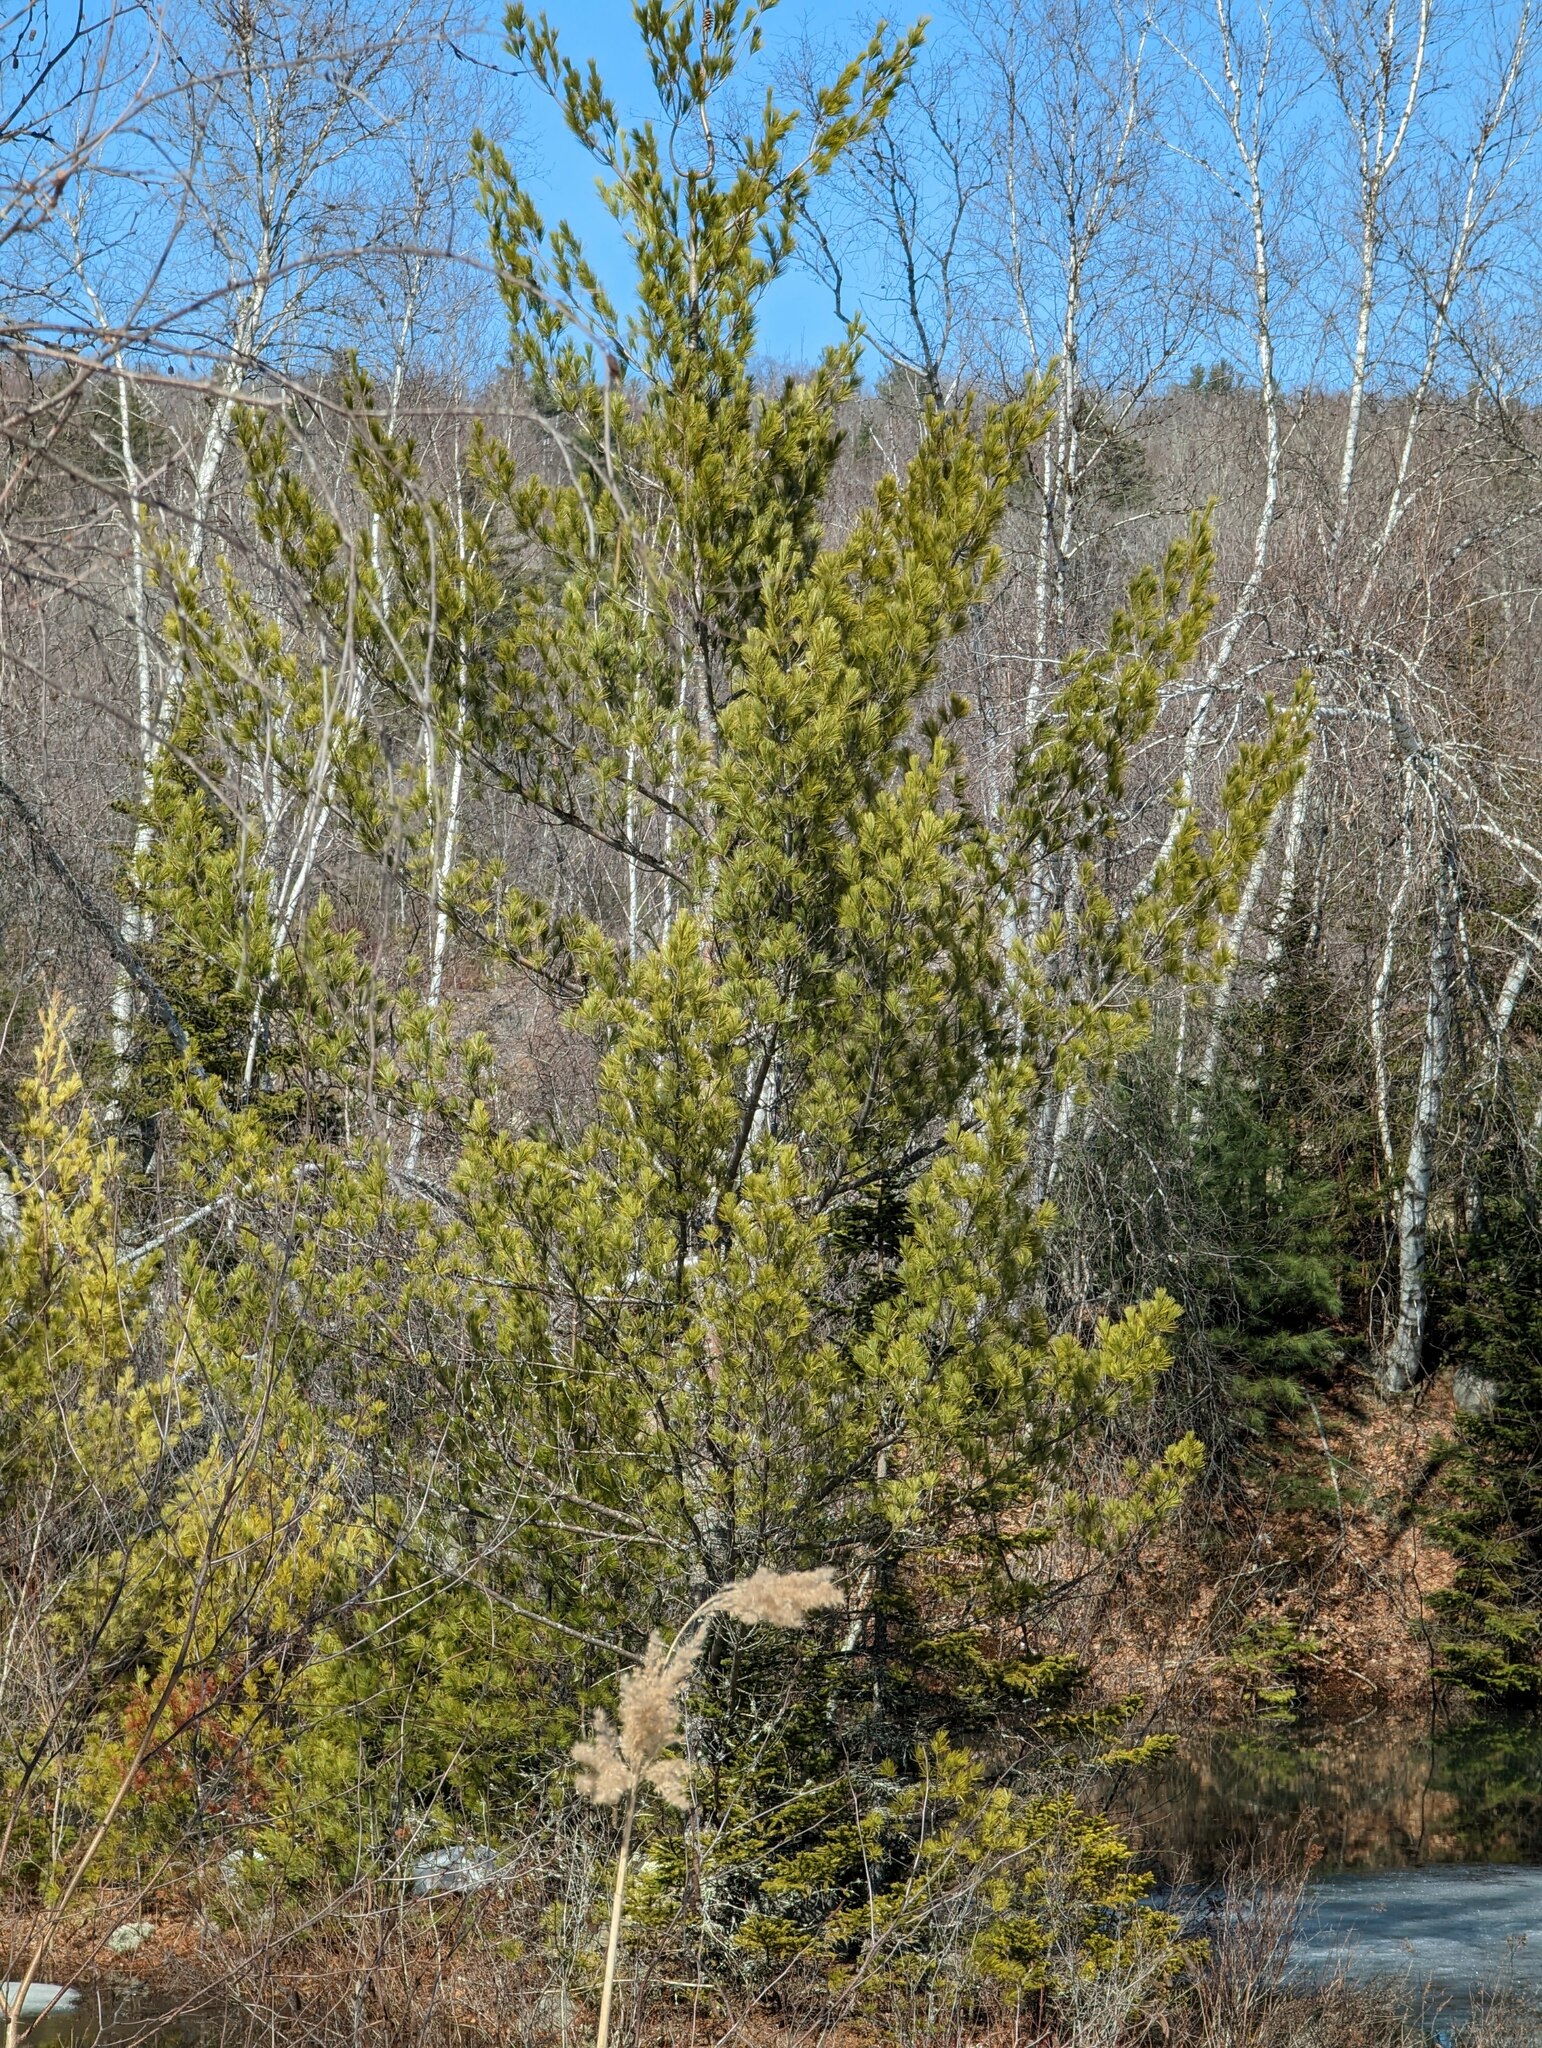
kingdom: Plantae
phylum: Tracheophyta
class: Pinopsida
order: Pinales
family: Pinaceae
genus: Pinus
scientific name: Pinus strobus
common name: Weymouth pine
